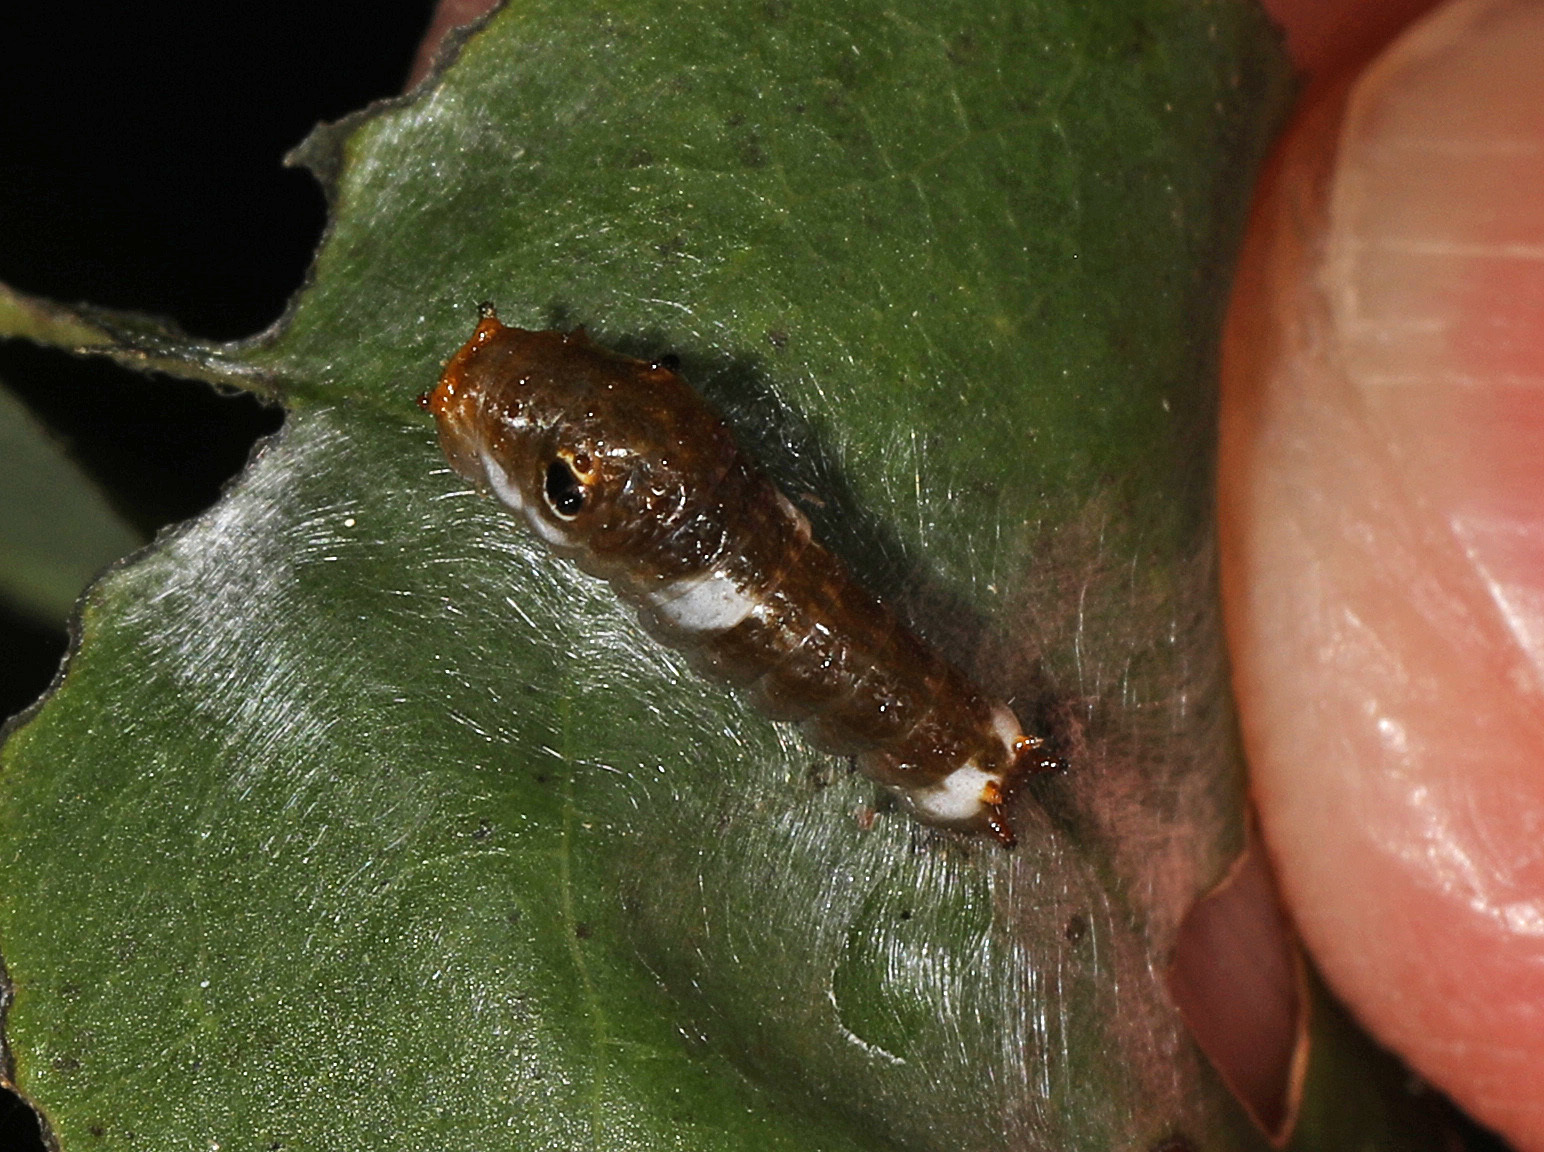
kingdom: Animalia
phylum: Arthropoda
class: Insecta
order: Lepidoptera
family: Papilionidae
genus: Papilio
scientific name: Papilio troilus
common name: Spicebush swallowtail
